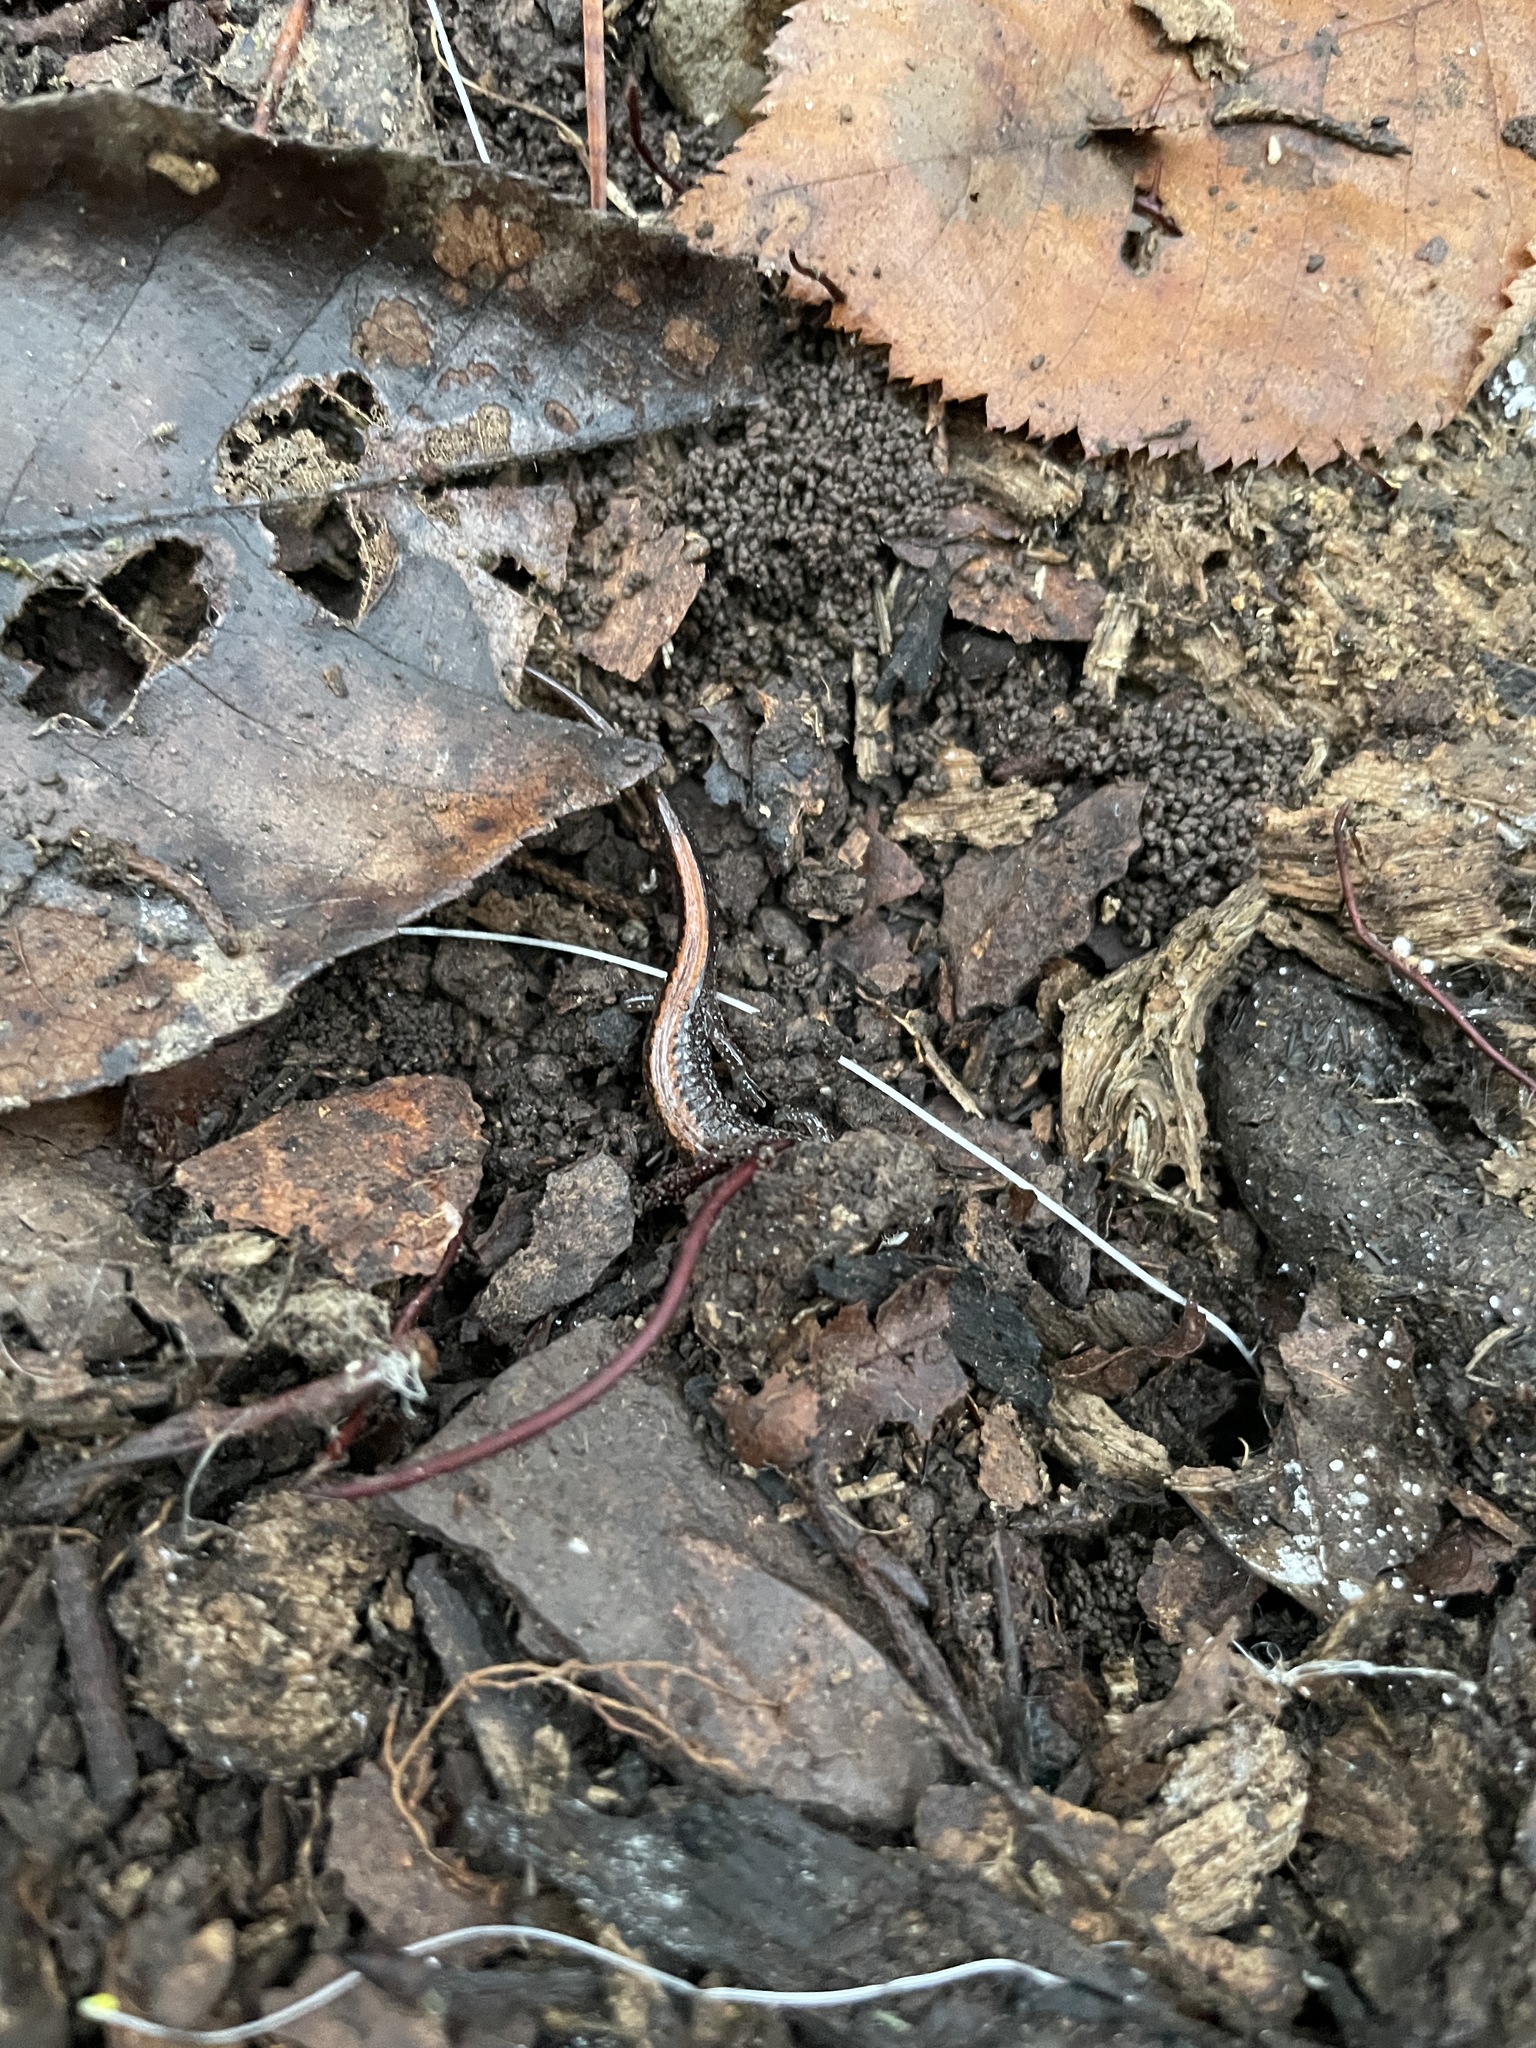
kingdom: Animalia
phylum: Chordata
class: Amphibia
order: Caudata
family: Plethodontidae
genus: Plethodon
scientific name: Plethodon serratus
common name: Southern red-backed salamander
